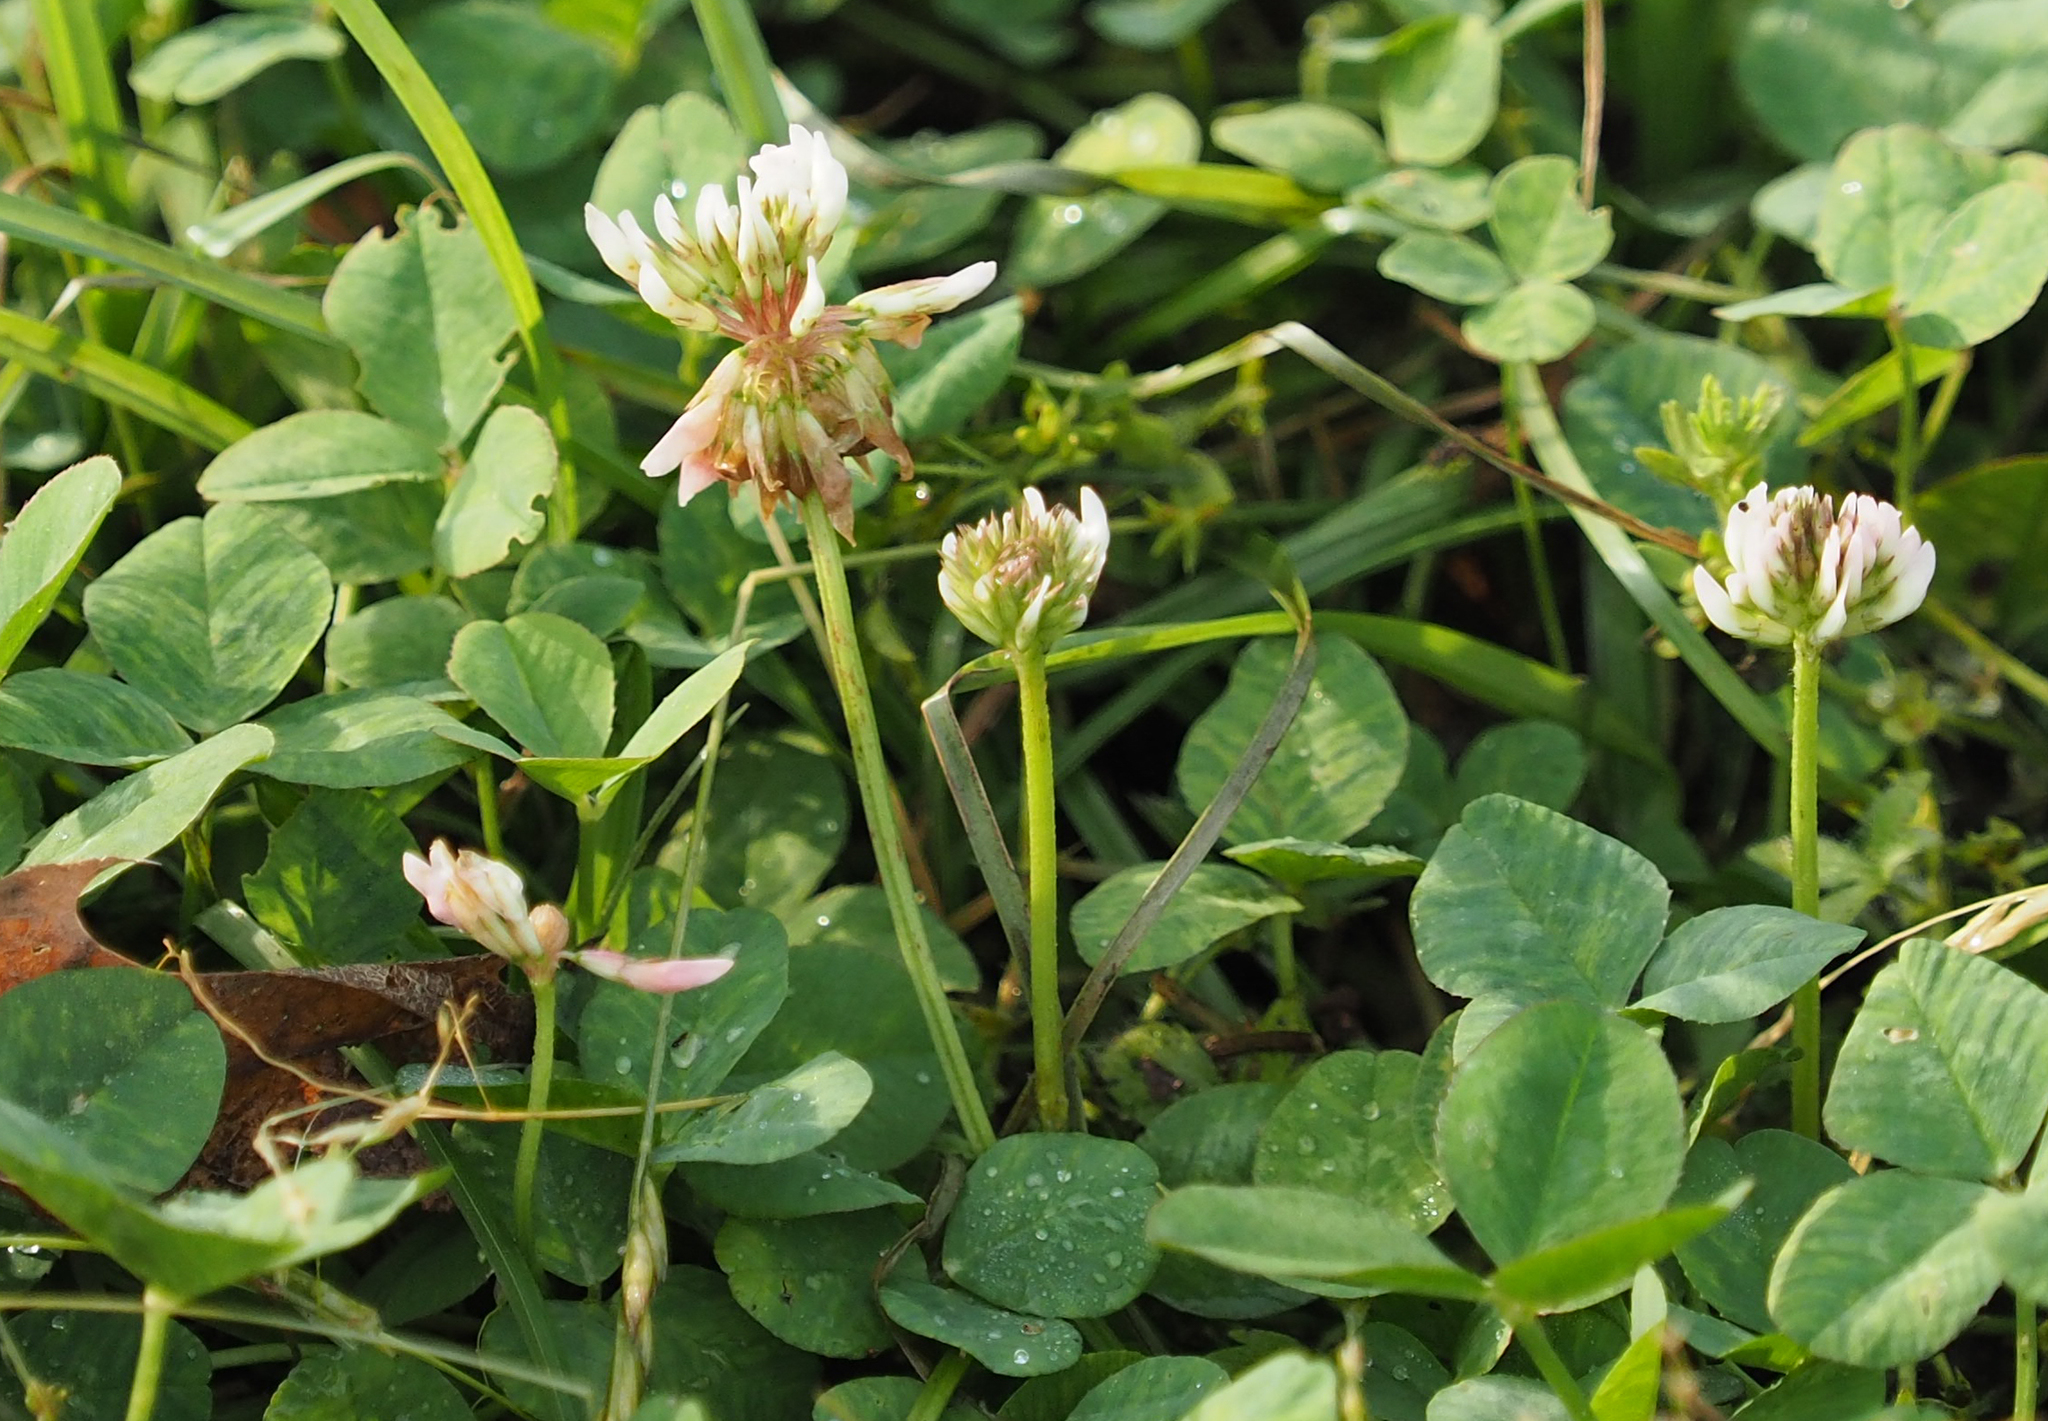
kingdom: Plantae
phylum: Tracheophyta
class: Magnoliopsida
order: Fabales
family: Fabaceae
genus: Trifolium
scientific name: Trifolium repens
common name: White clover
